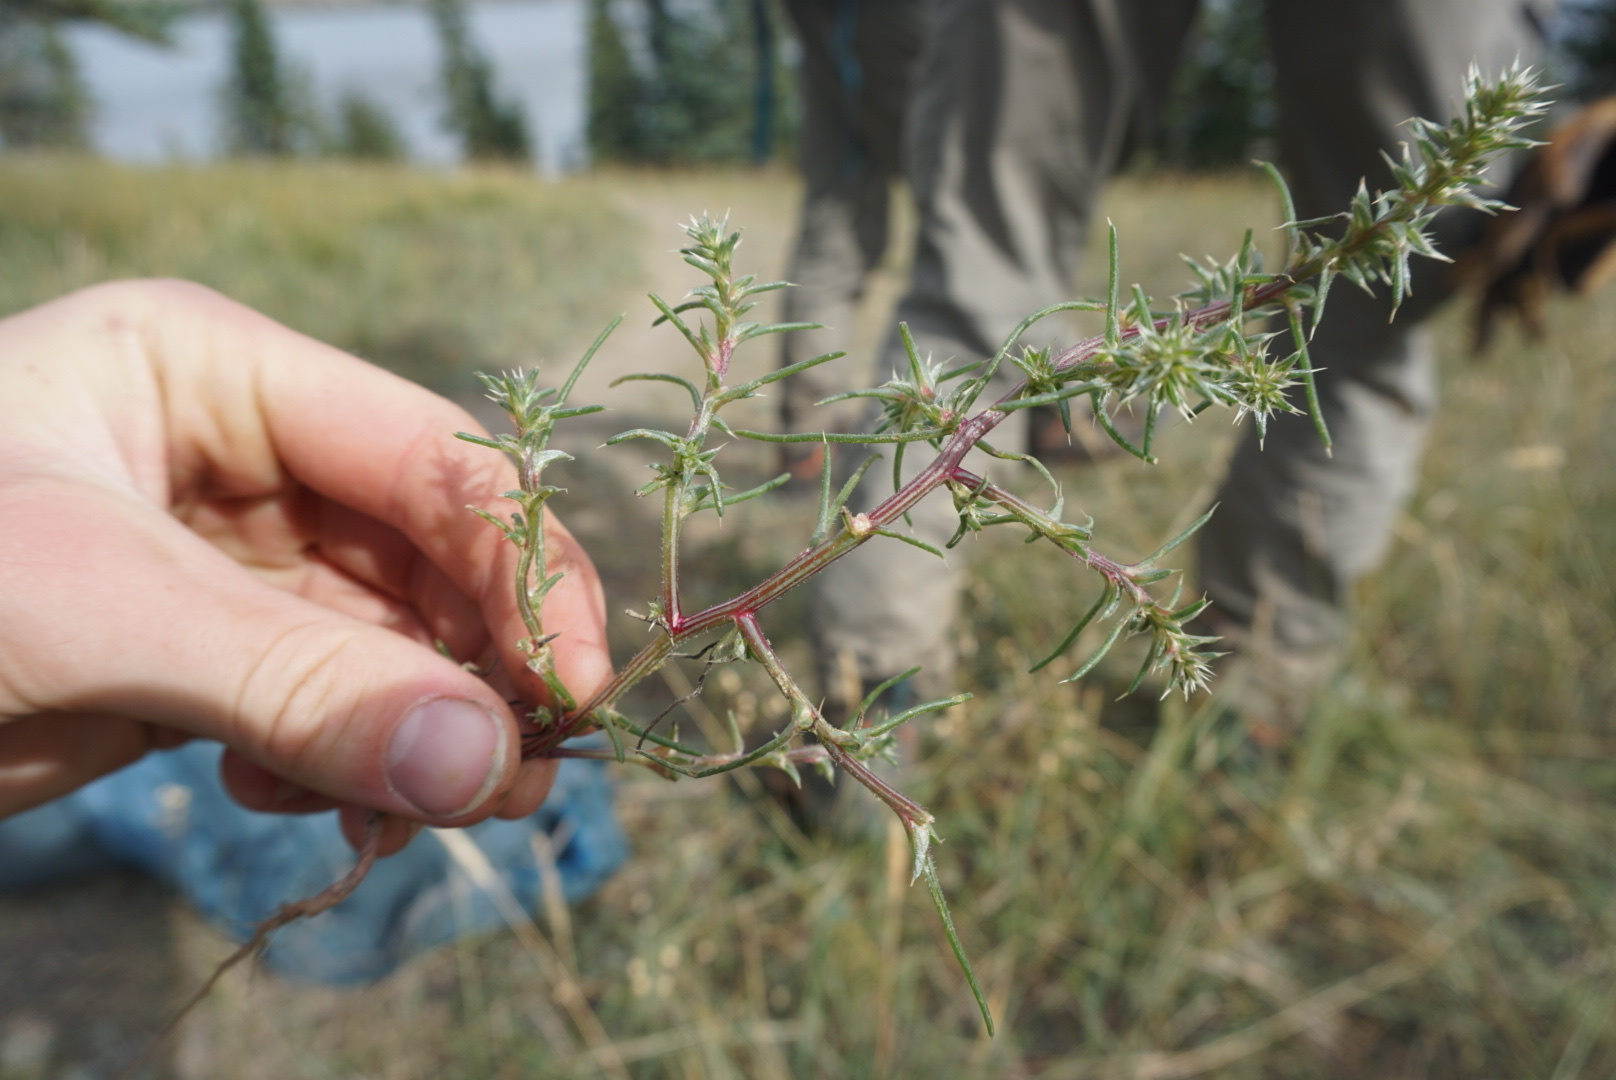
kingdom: Plantae
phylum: Tracheophyta
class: Magnoliopsida
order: Caryophyllales
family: Amaranthaceae
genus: Salsola
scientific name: Salsola tragus
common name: Prickly russian thistle
